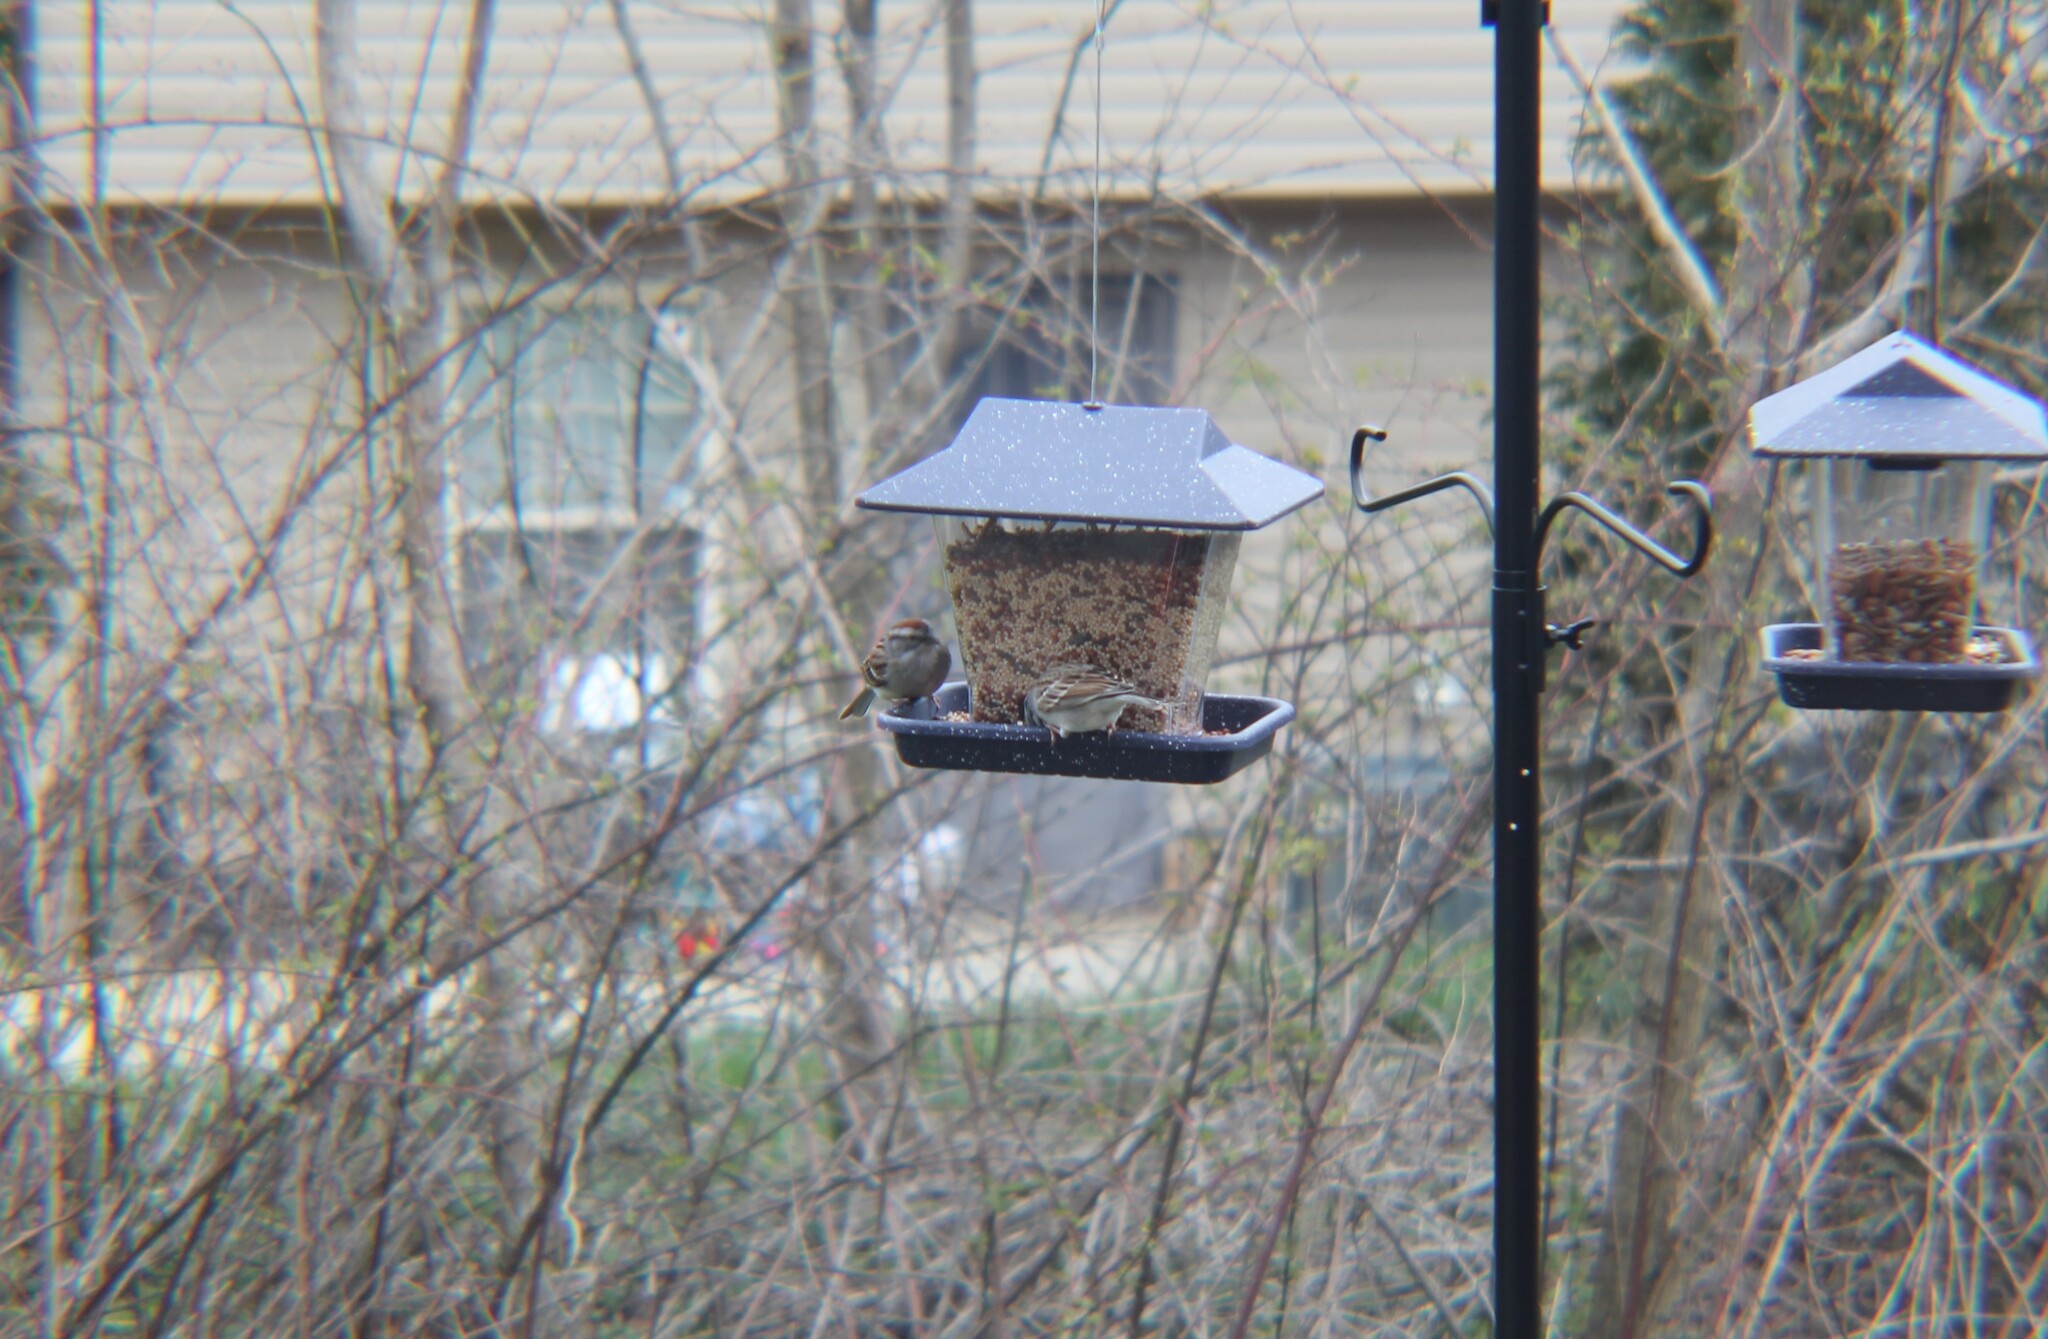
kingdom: Animalia
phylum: Chordata
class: Aves
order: Passeriformes
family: Passerellidae
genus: Spizella
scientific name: Spizella passerina
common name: Chipping sparrow
